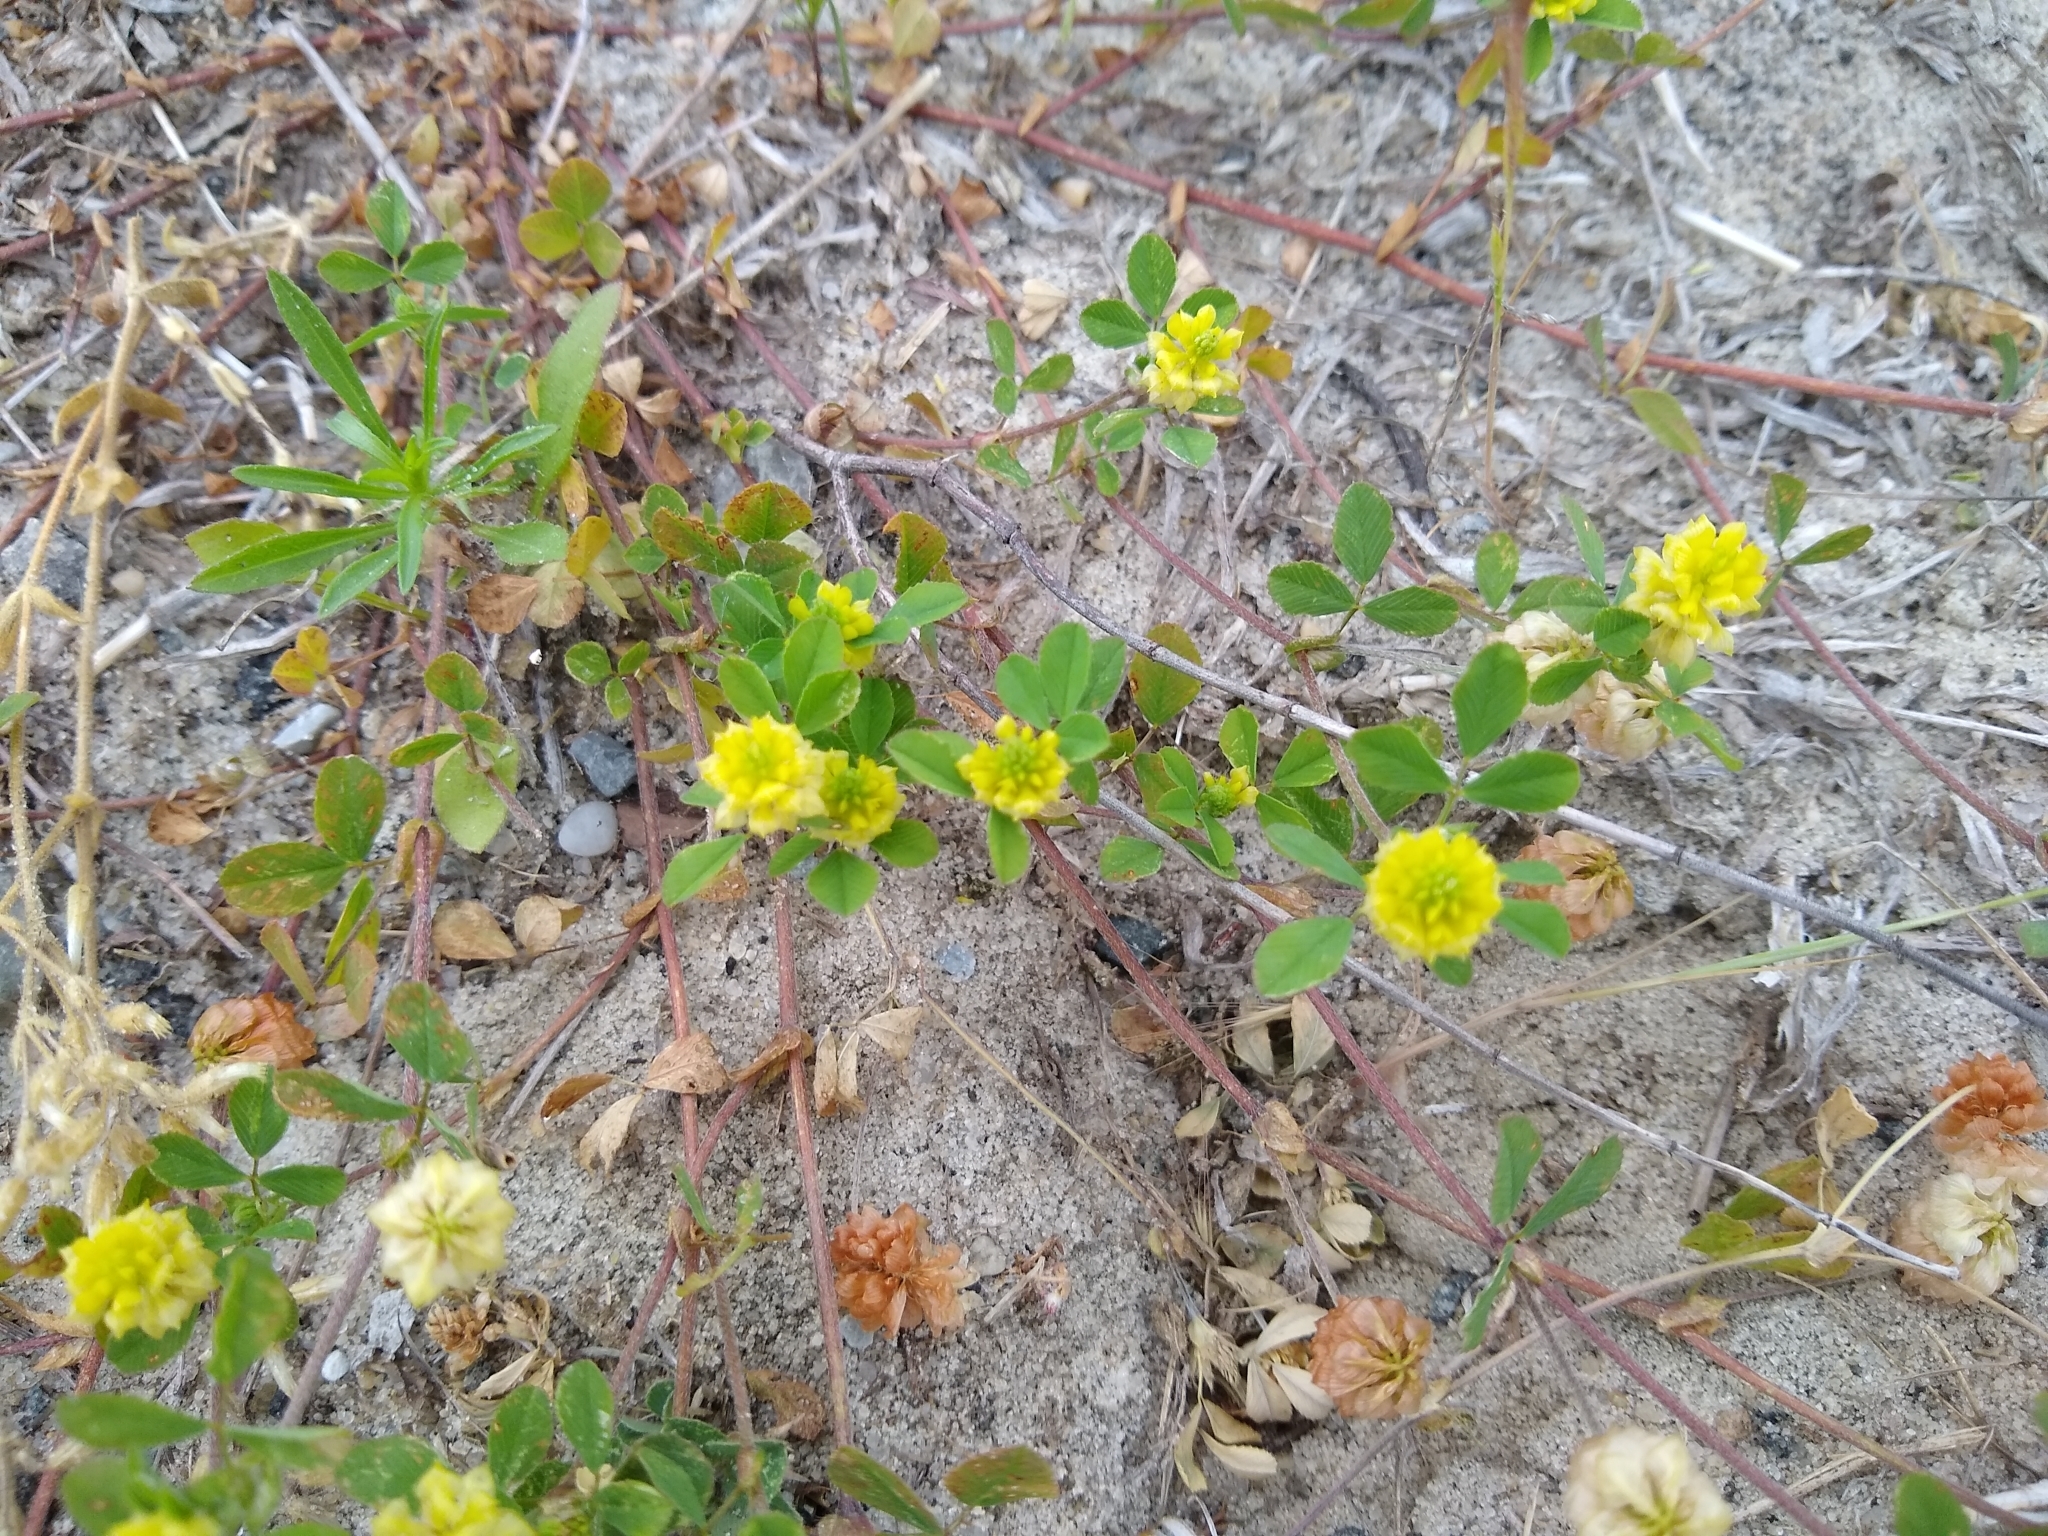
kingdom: Plantae
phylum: Tracheophyta
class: Magnoliopsida
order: Fabales
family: Fabaceae
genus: Trifolium
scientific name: Trifolium campestre
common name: Field clover
